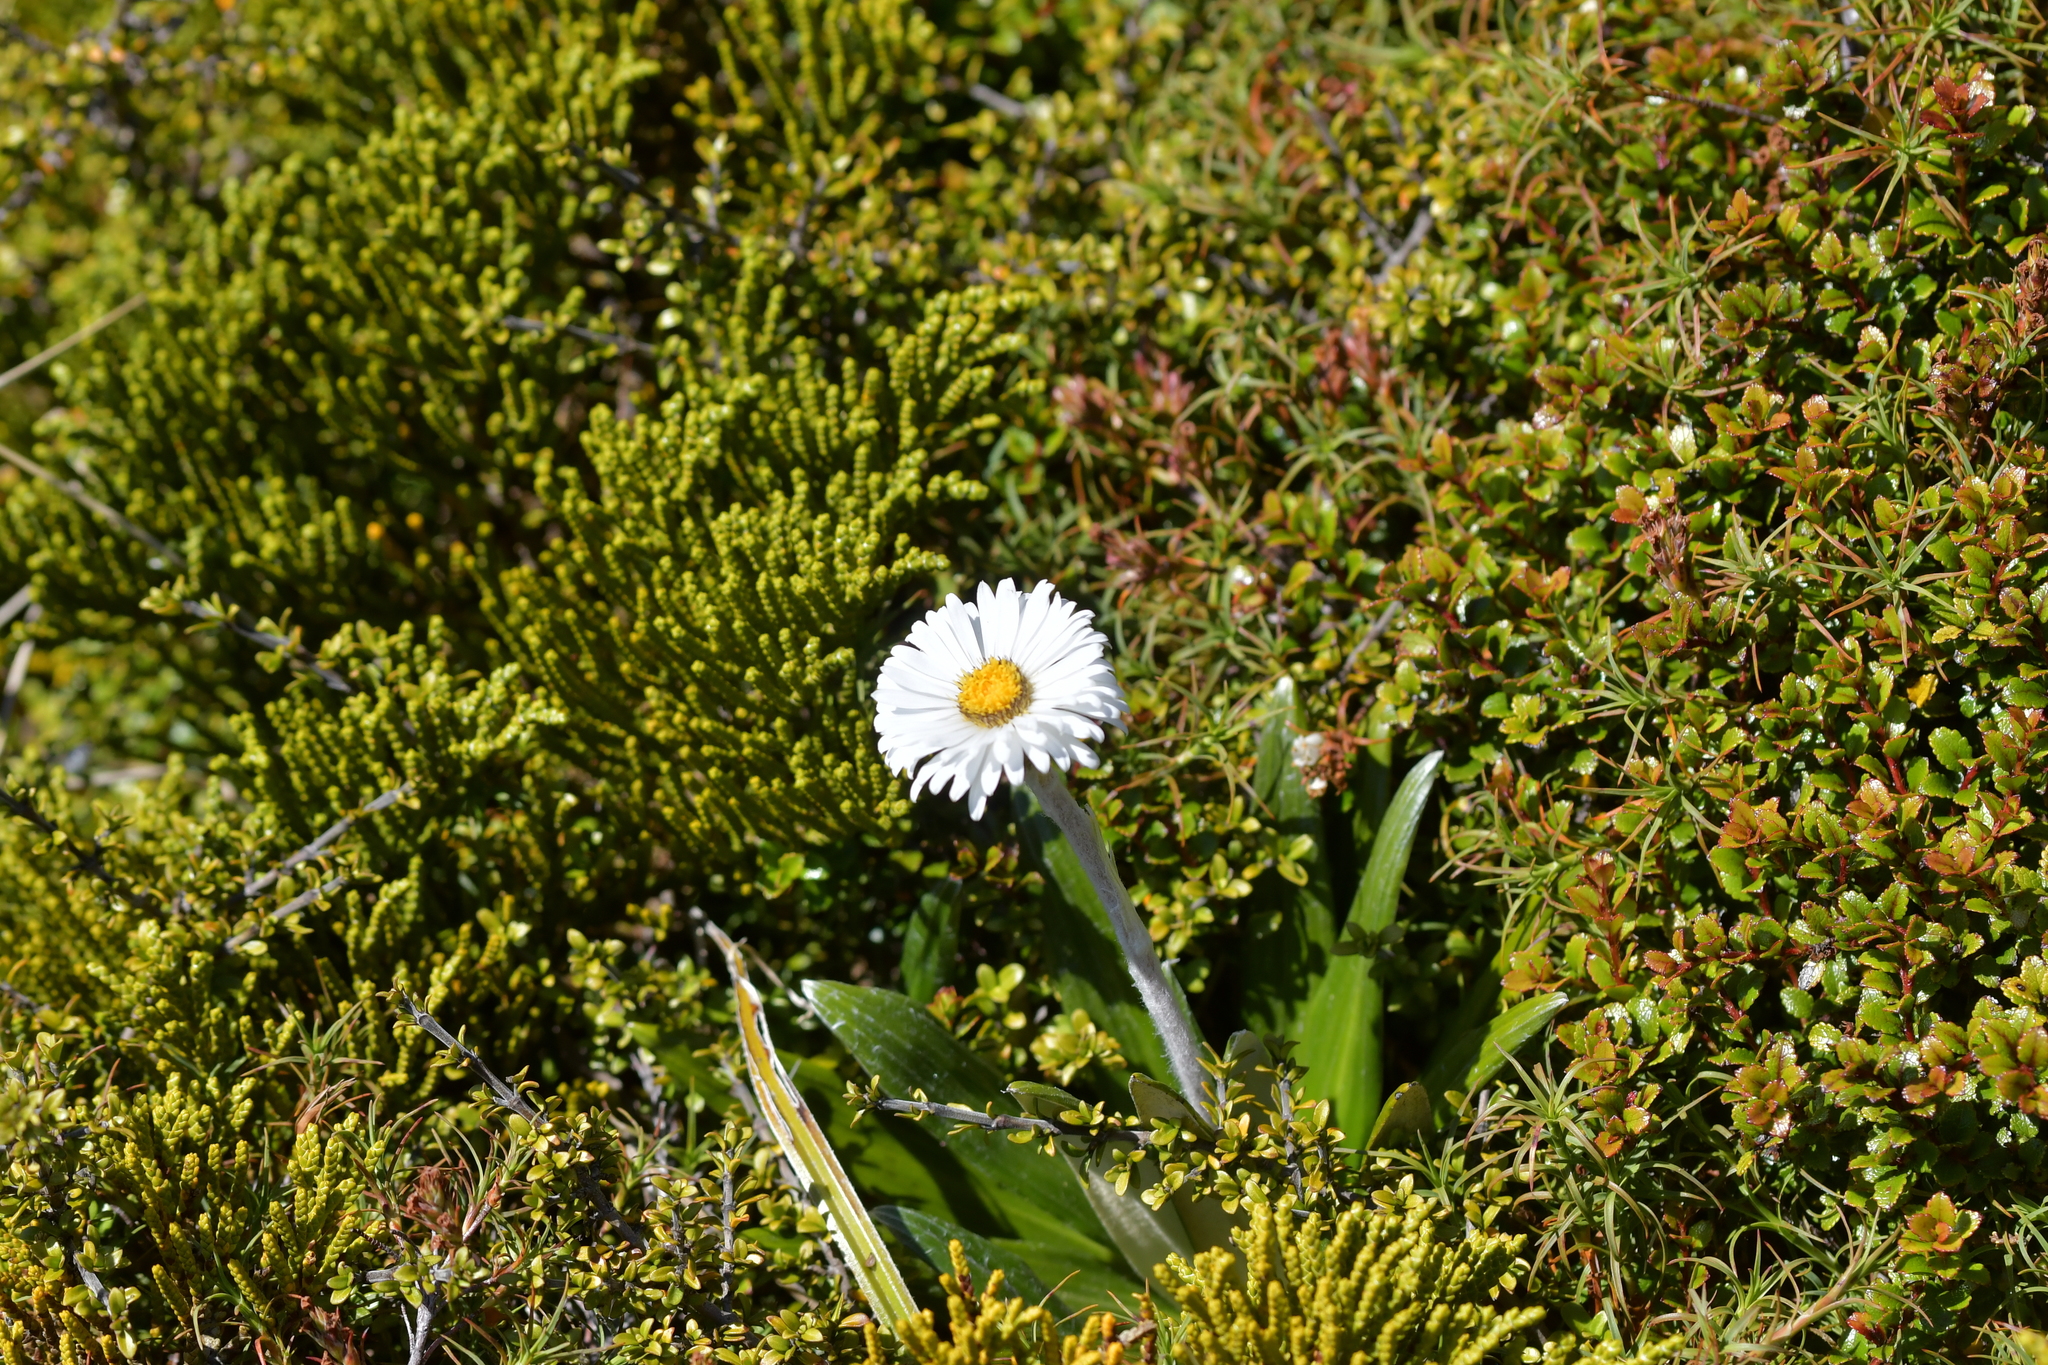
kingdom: Plantae
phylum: Tracheophyta
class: Magnoliopsida
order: Asterales
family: Asteraceae
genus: Celmisia
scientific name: Celmisia spectabilis
